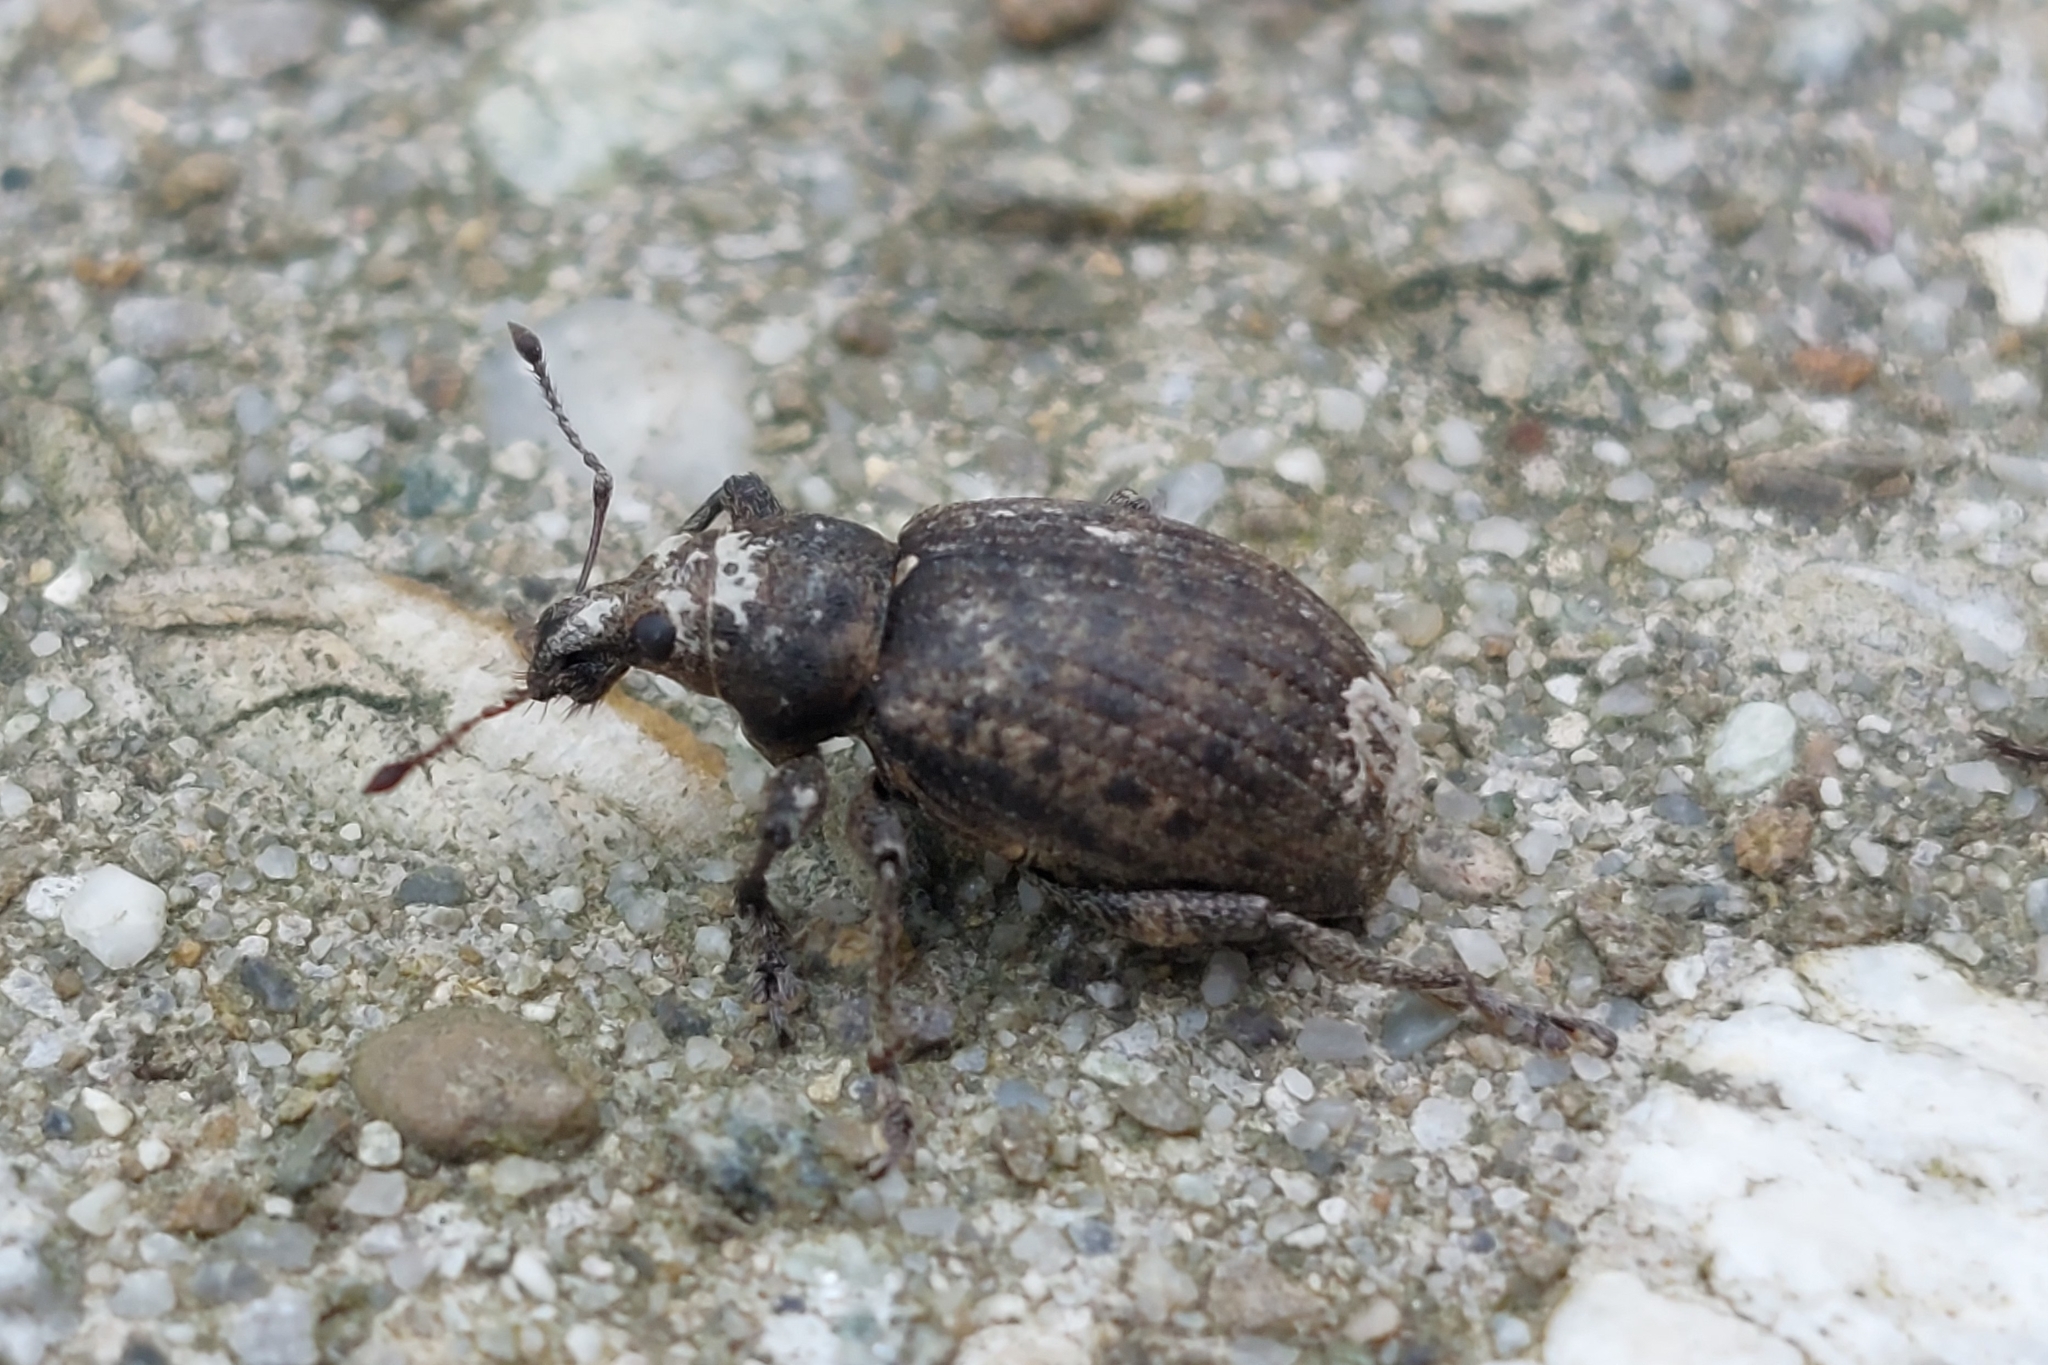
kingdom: Animalia
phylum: Arthropoda
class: Insecta
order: Coleoptera
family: Curculionidae
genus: Liophloeus
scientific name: Liophloeus tessulatus
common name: Weevil
